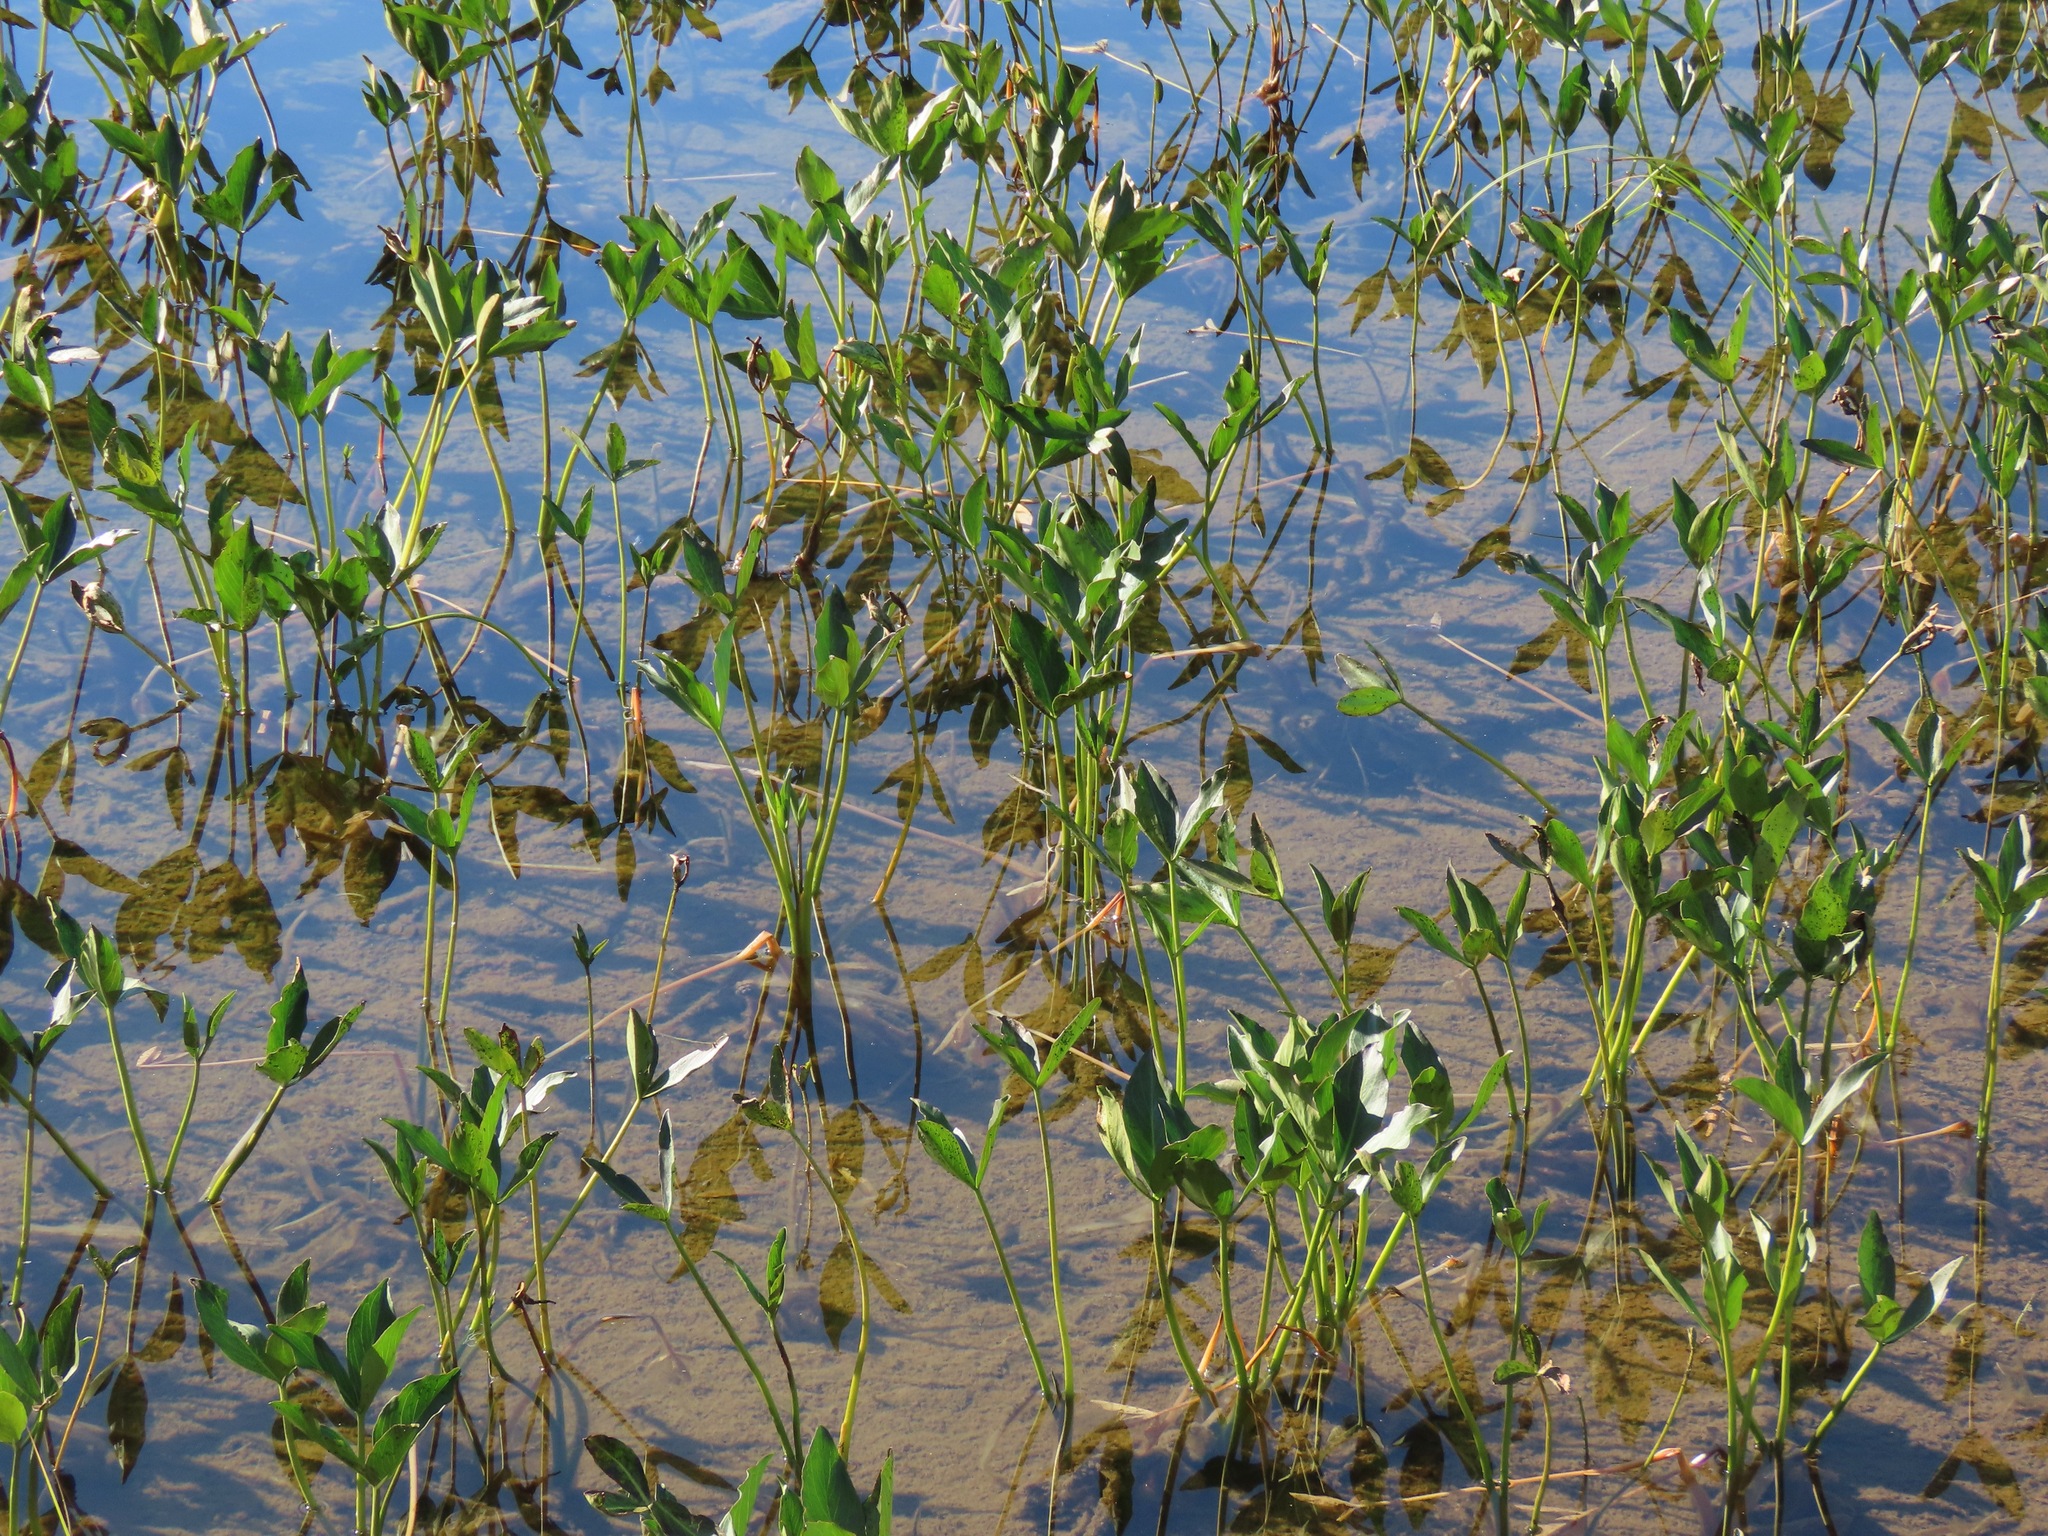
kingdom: Plantae
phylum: Tracheophyta
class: Magnoliopsida
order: Asterales
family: Menyanthaceae
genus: Menyanthes
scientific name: Menyanthes trifoliata
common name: Bogbean
